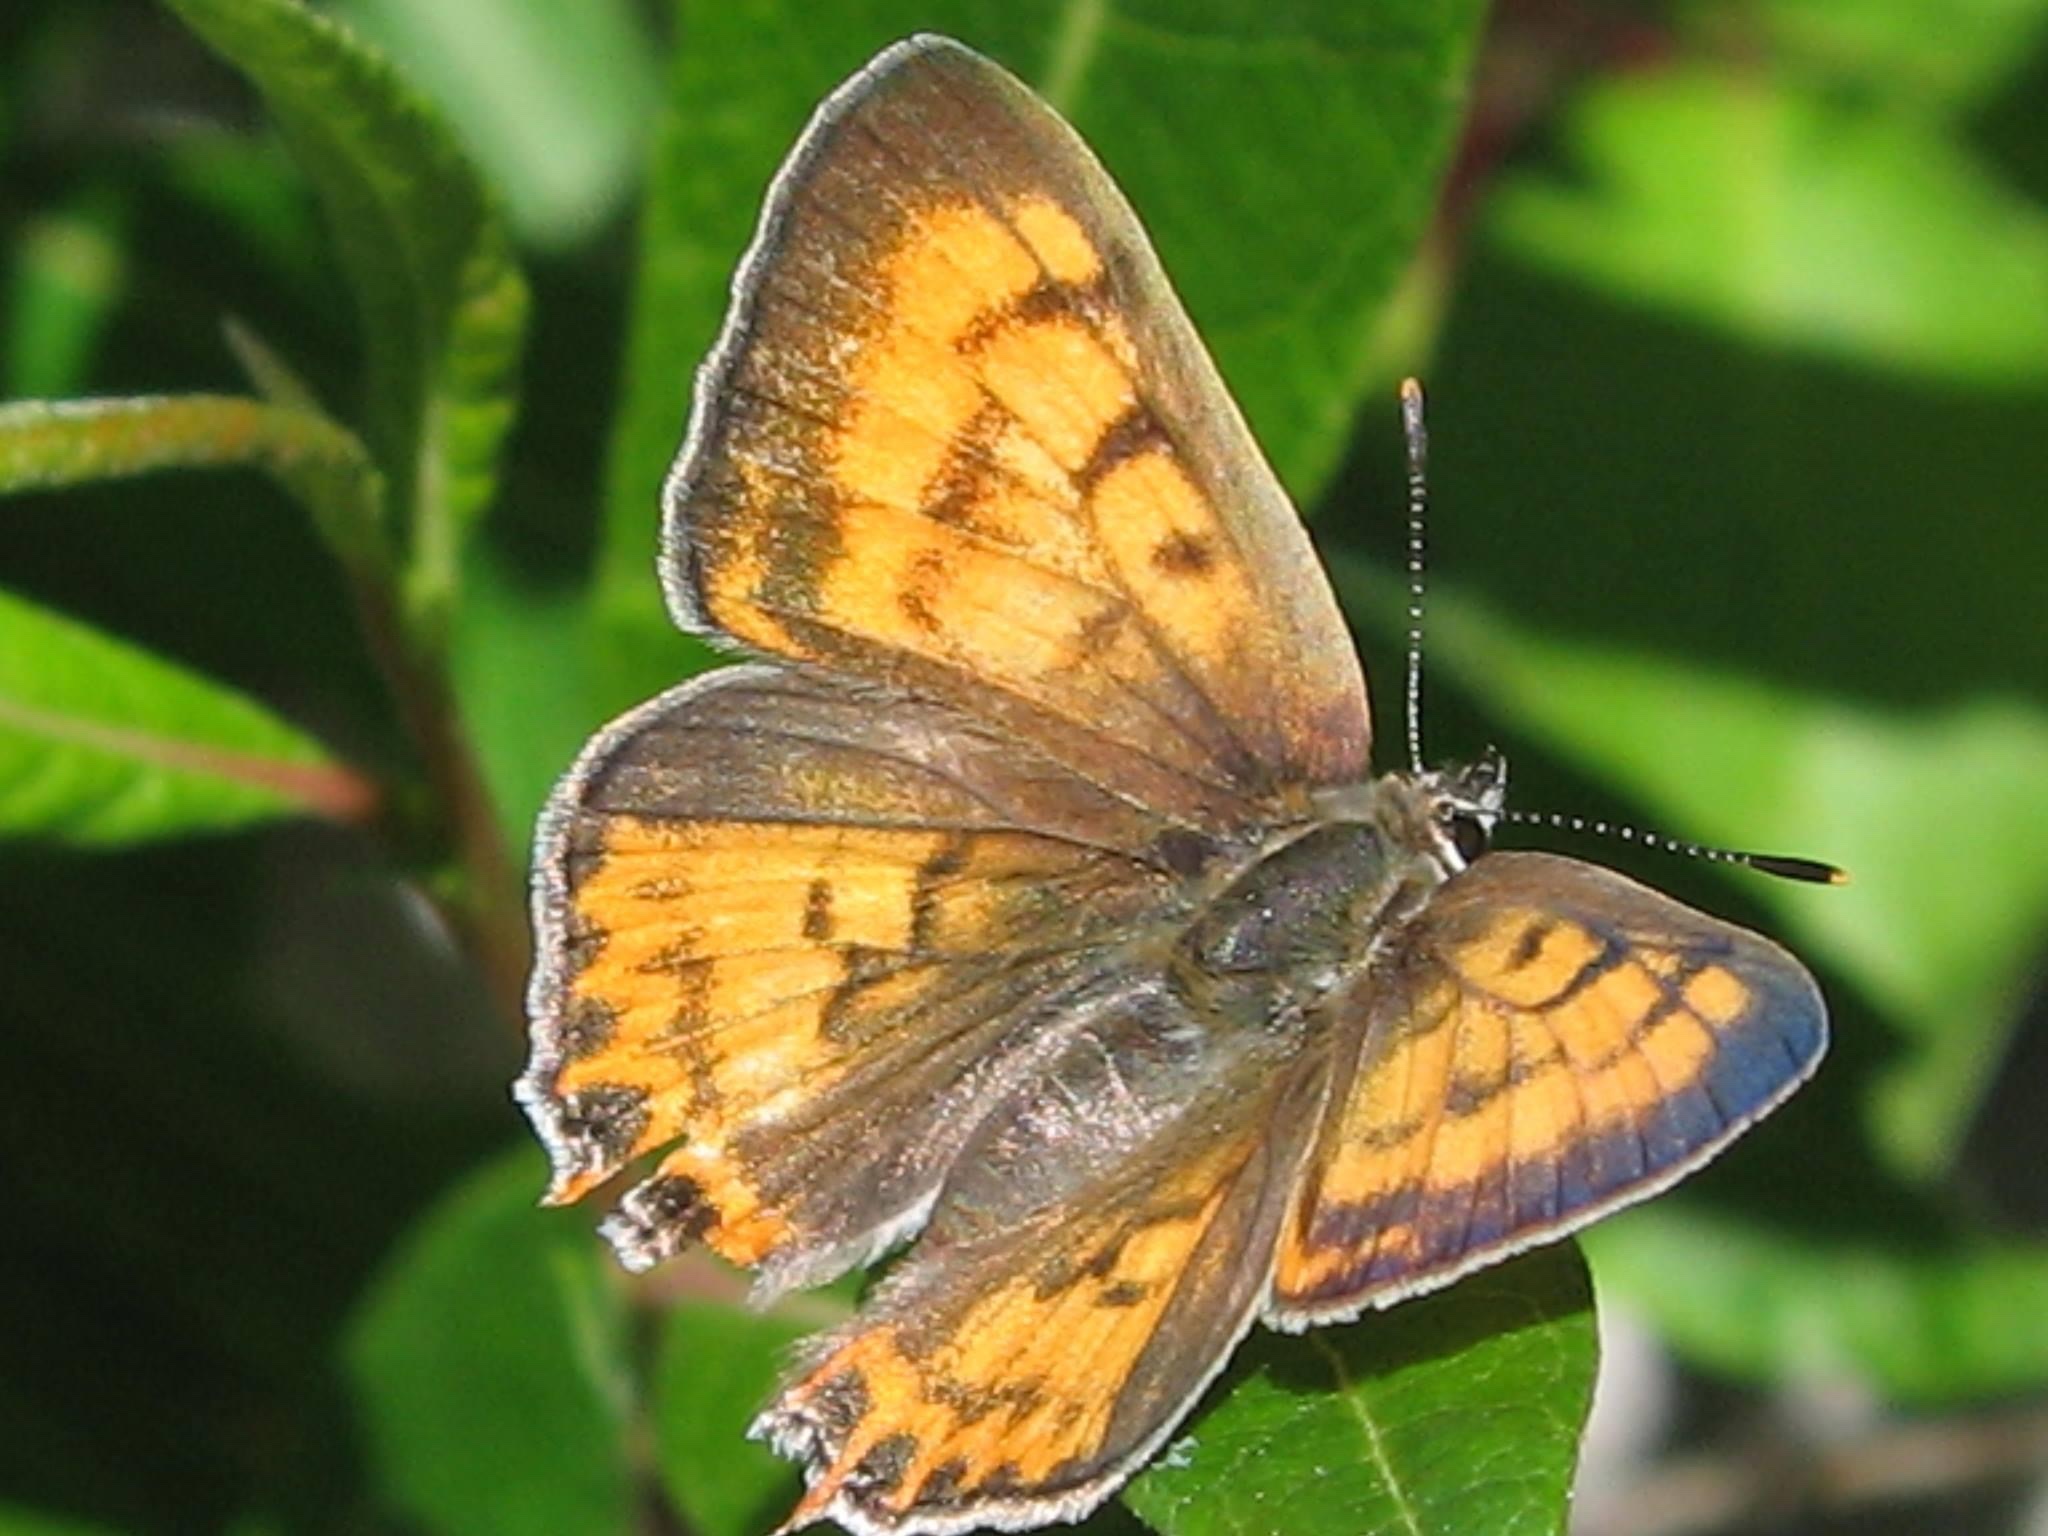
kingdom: Animalia
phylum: Arthropoda
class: Insecta
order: Lepidoptera
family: Lycaenidae
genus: Tharsalea
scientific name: Tharsalea arota
